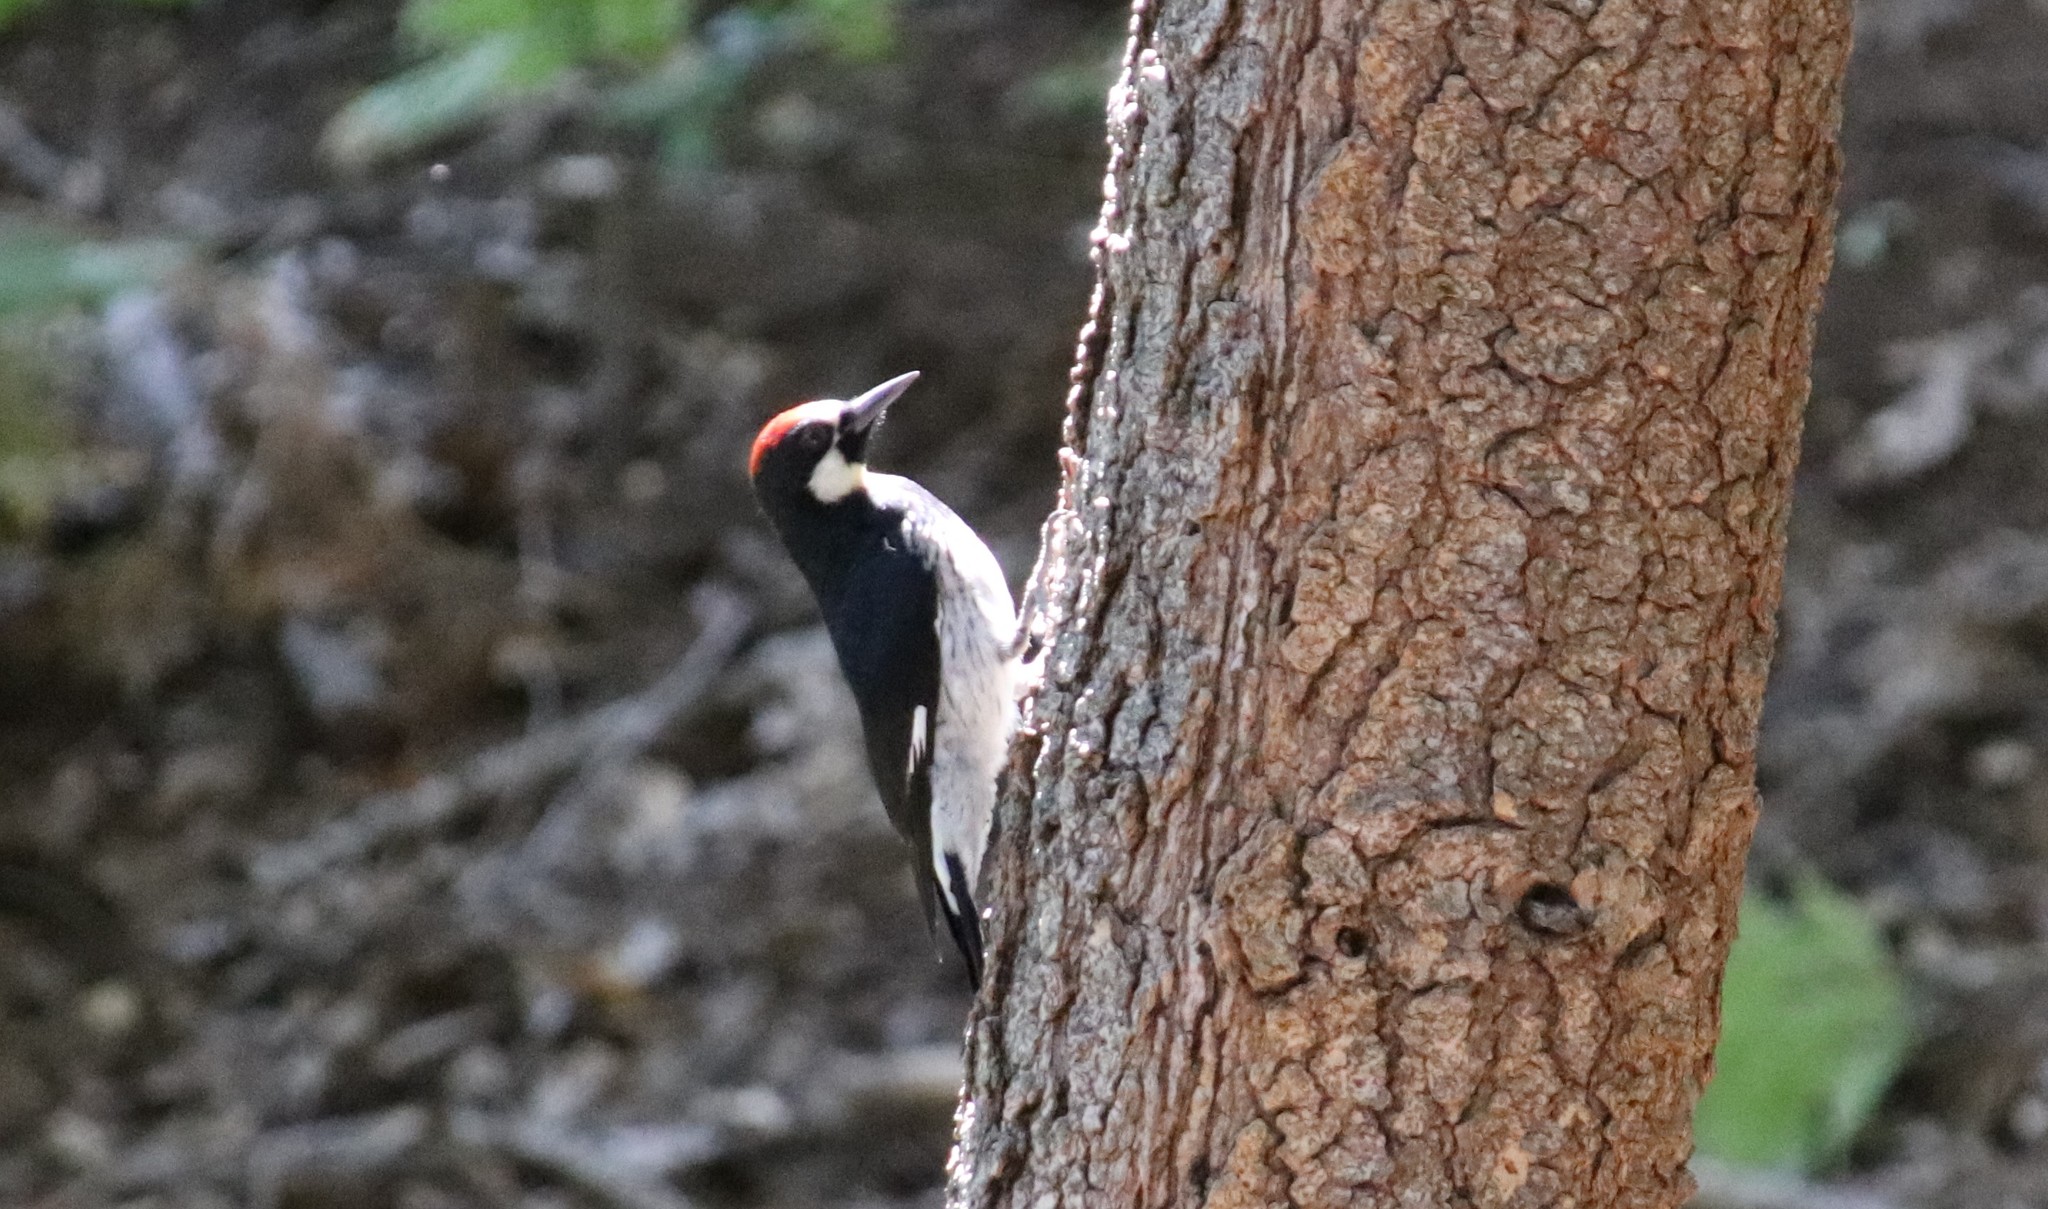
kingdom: Animalia
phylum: Chordata
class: Aves
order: Piciformes
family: Picidae
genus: Melanerpes
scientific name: Melanerpes formicivorus
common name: Acorn woodpecker
